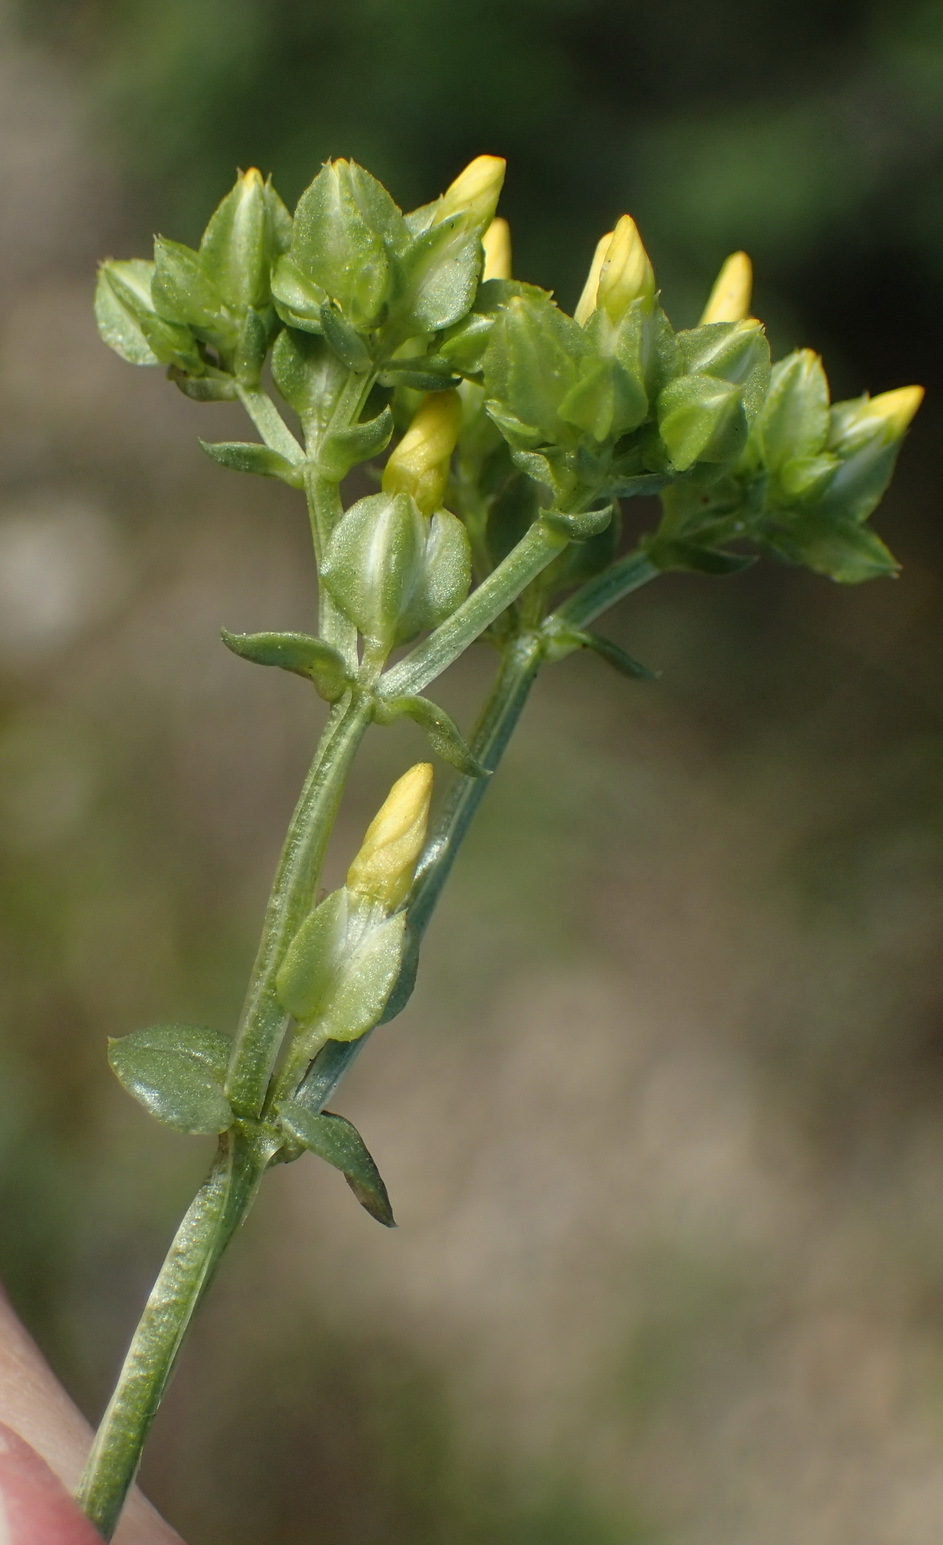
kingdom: Plantae
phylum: Tracheophyta
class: Magnoliopsida
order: Gentianales
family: Gentianaceae
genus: Sebaea
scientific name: Sebaea grisebachiana
